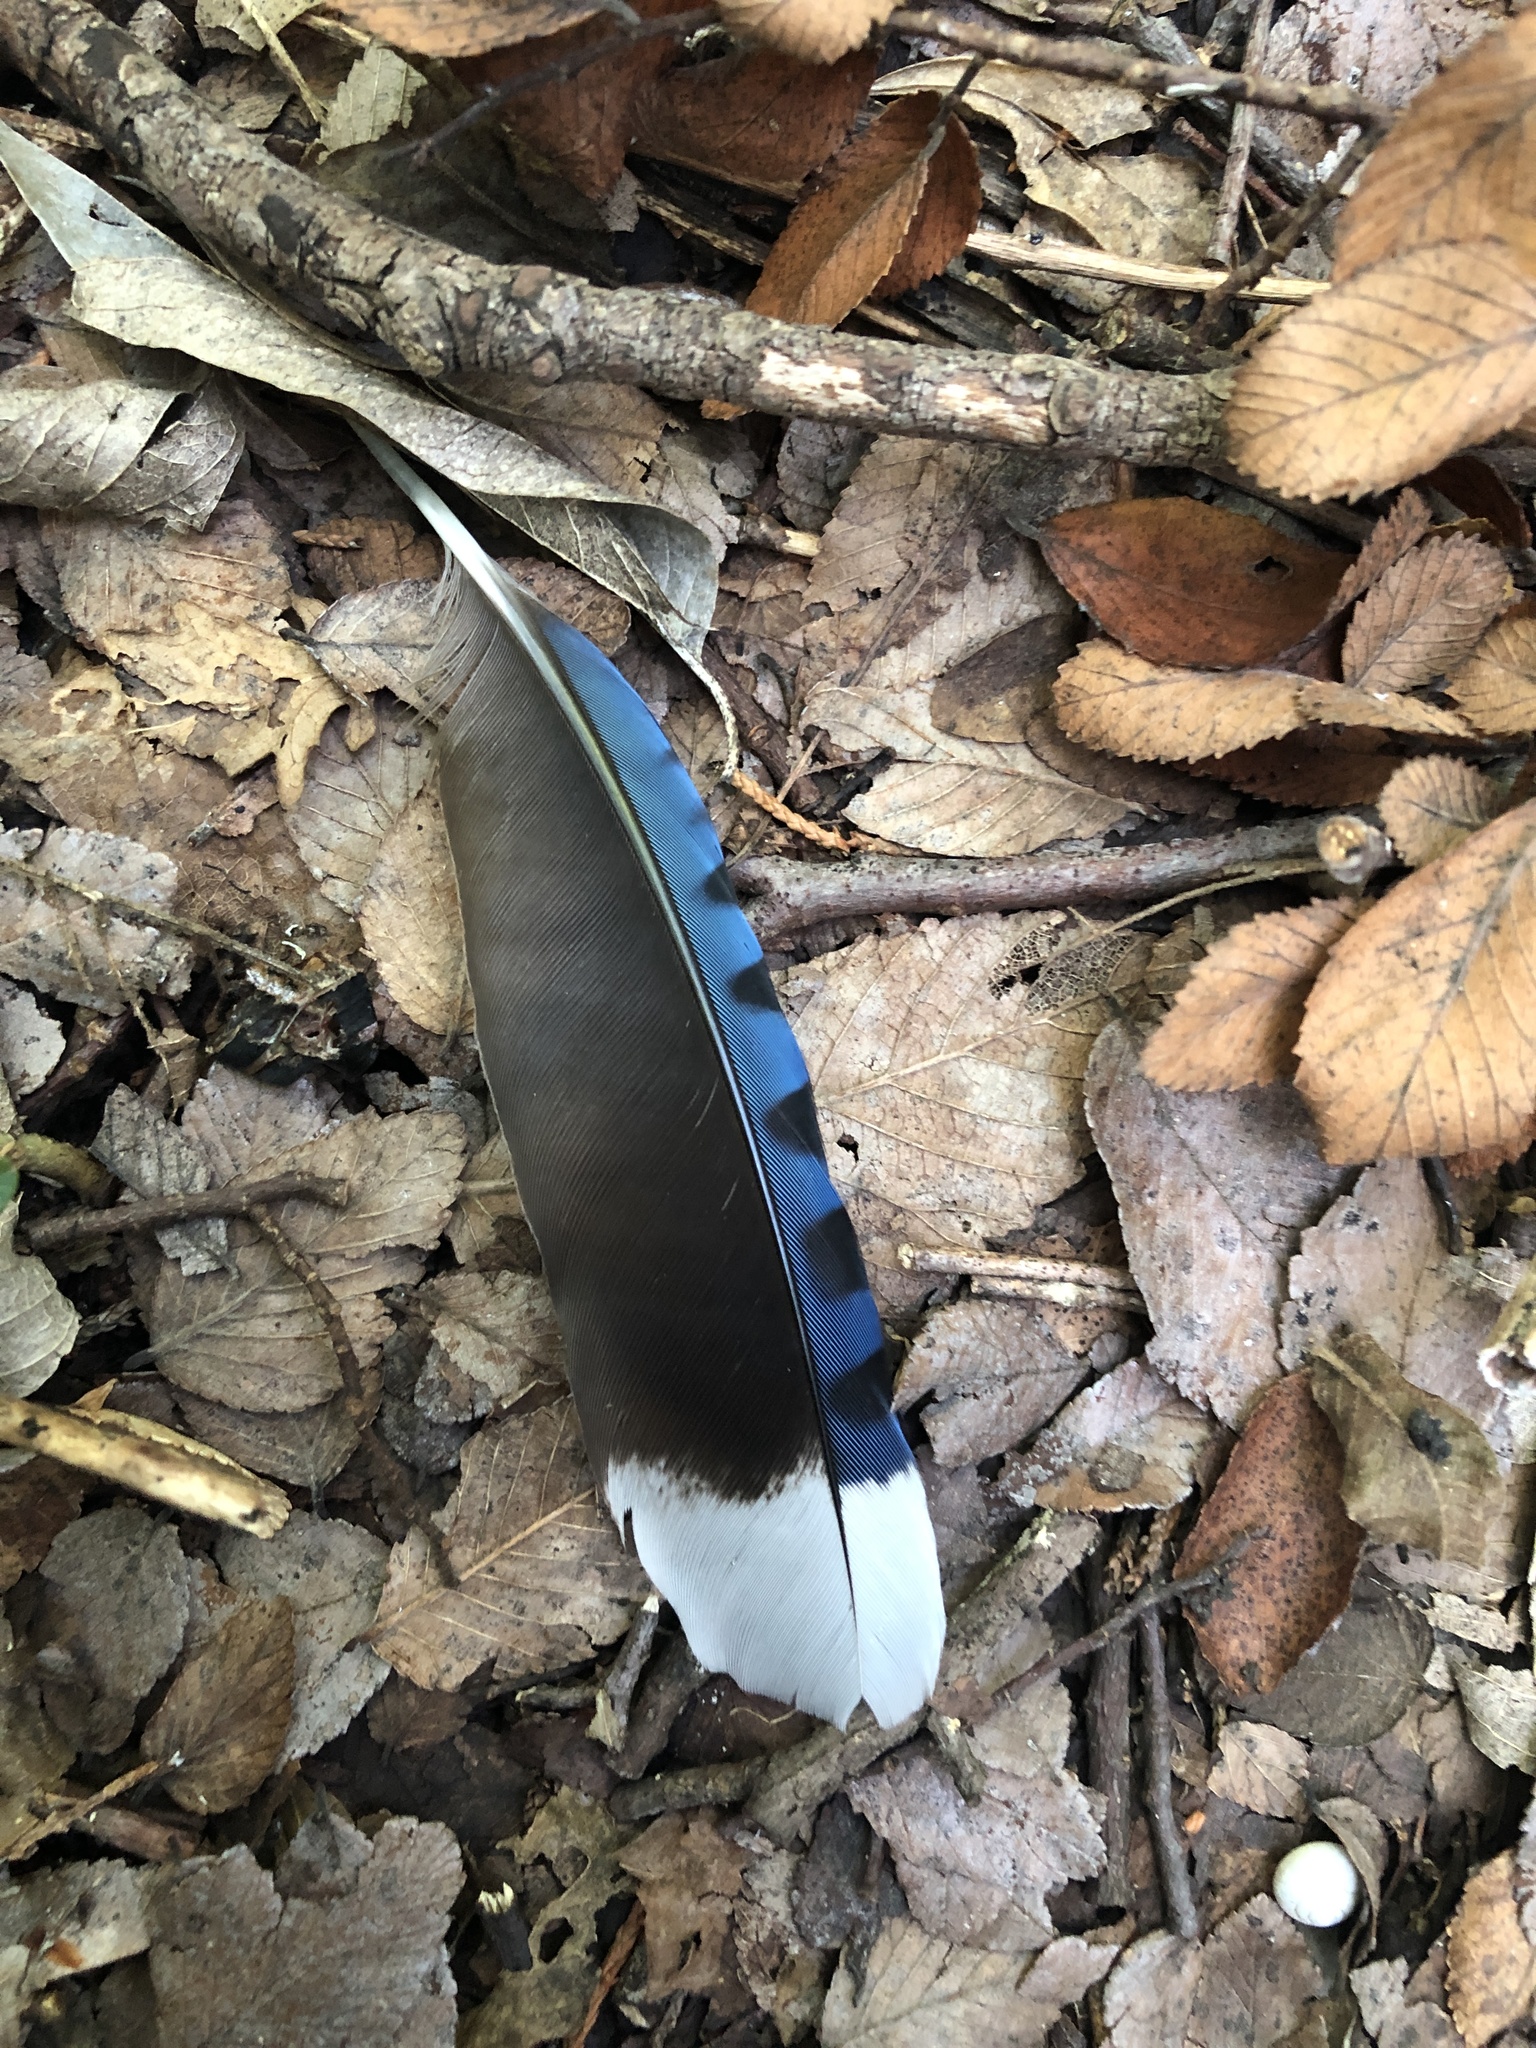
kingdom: Animalia
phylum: Chordata
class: Aves
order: Passeriformes
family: Corvidae
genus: Cyanocitta
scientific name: Cyanocitta cristata
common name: Blue jay
